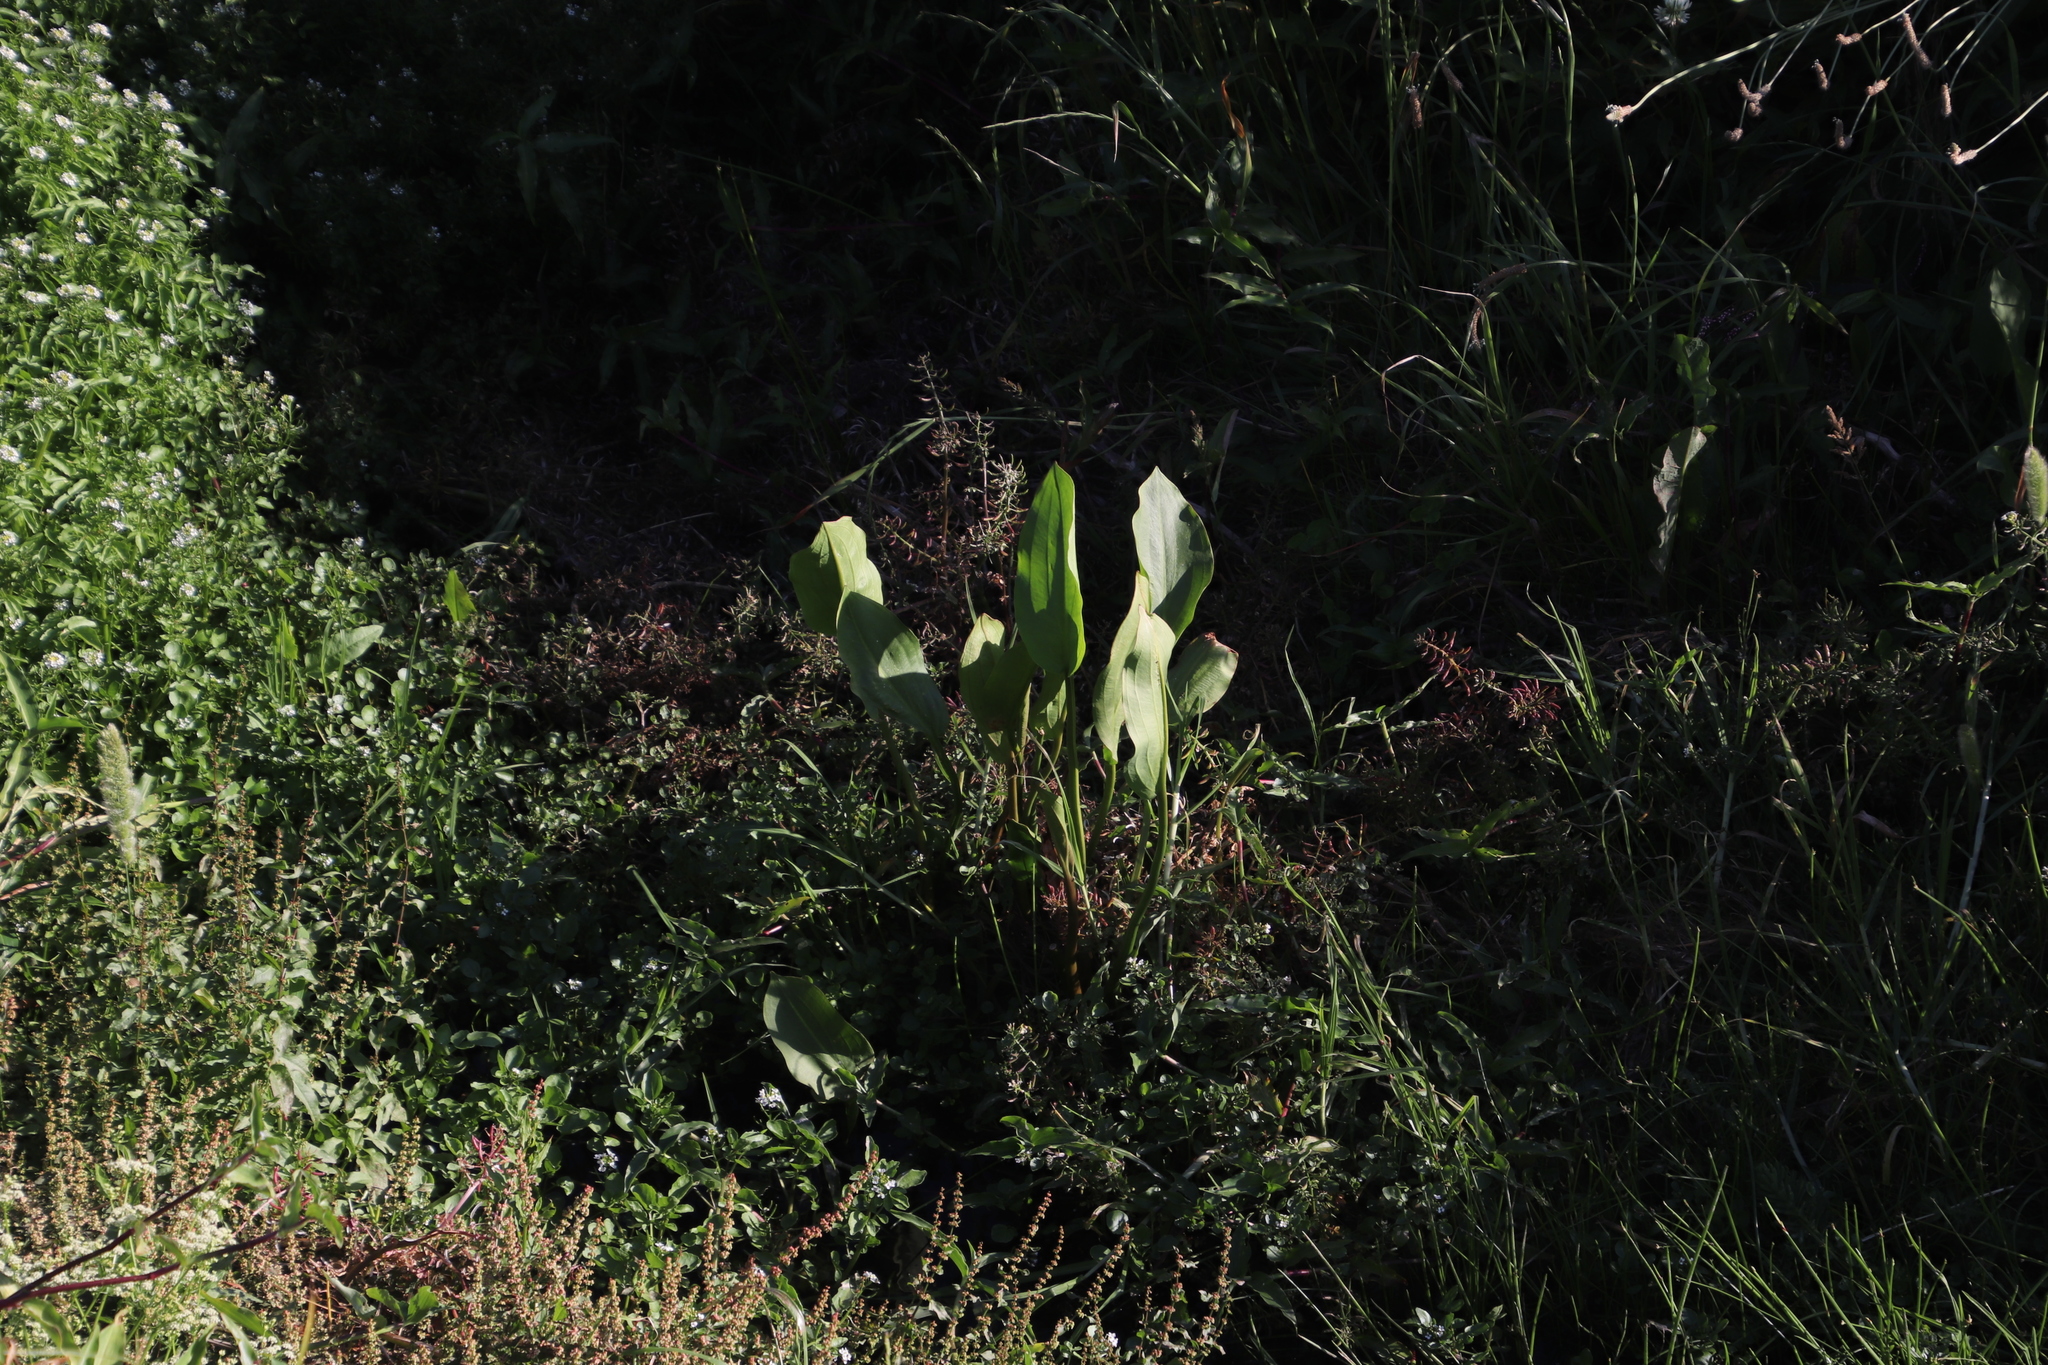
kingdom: Plantae
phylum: Tracheophyta
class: Liliopsida
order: Alismatales
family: Alismataceae
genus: Alisma
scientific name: Alisma plantago-aquatica
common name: Water-plantain
